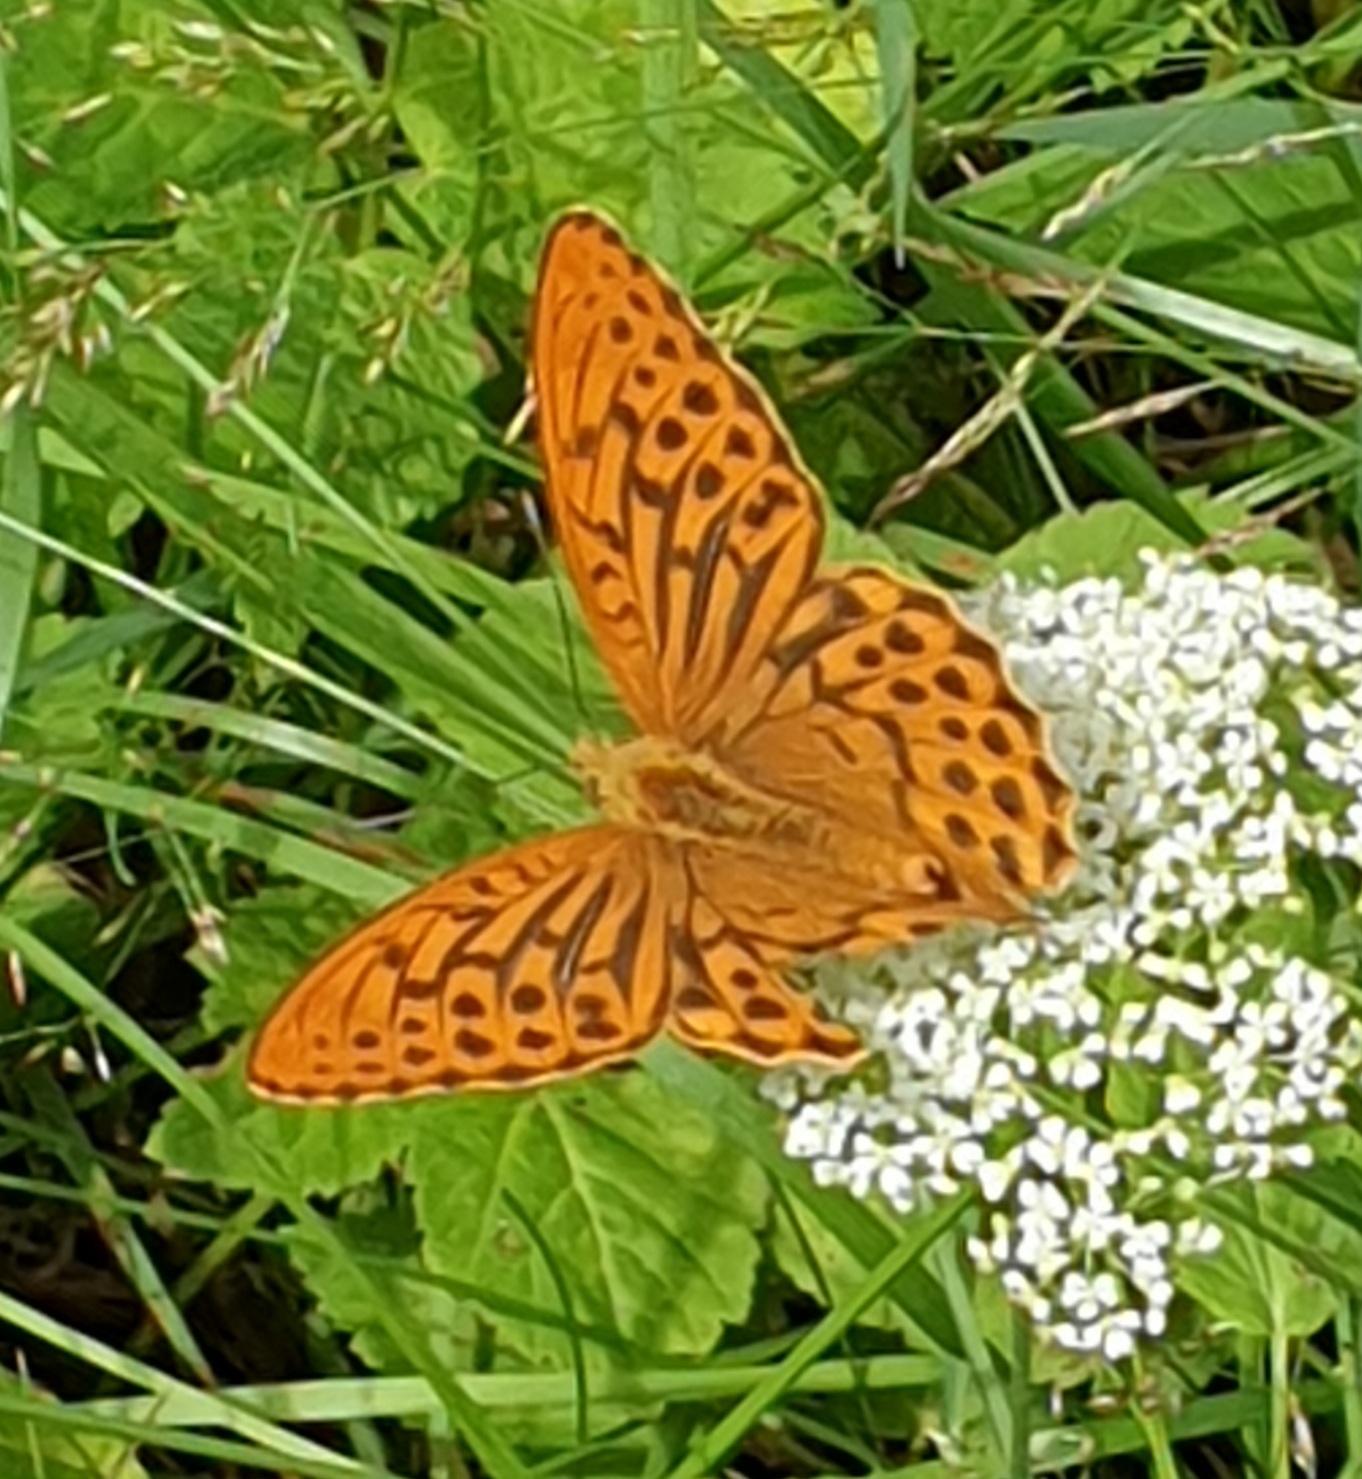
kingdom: Animalia
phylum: Arthropoda
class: Insecta
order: Lepidoptera
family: Nymphalidae
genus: Argynnis
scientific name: Argynnis paphia
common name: Silver-washed fritillary
